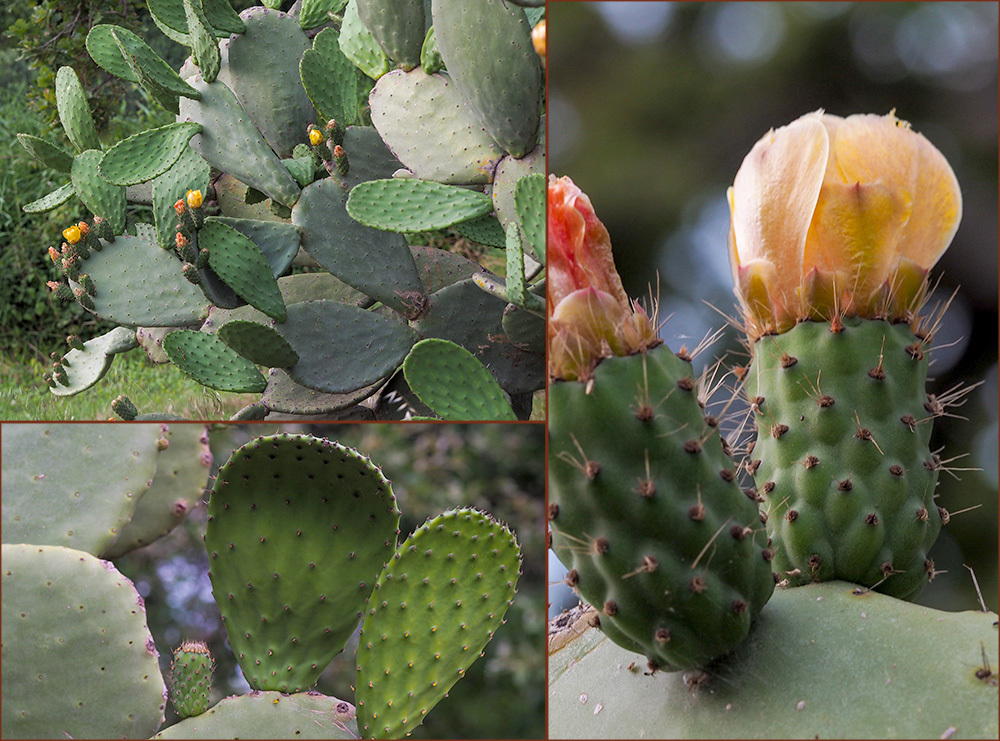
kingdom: Plantae
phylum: Tracheophyta
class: Magnoliopsida
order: Caryophyllales
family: Cactaceae
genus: Opuntia
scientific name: Opuntia ficus-indica
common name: Barbary fig
